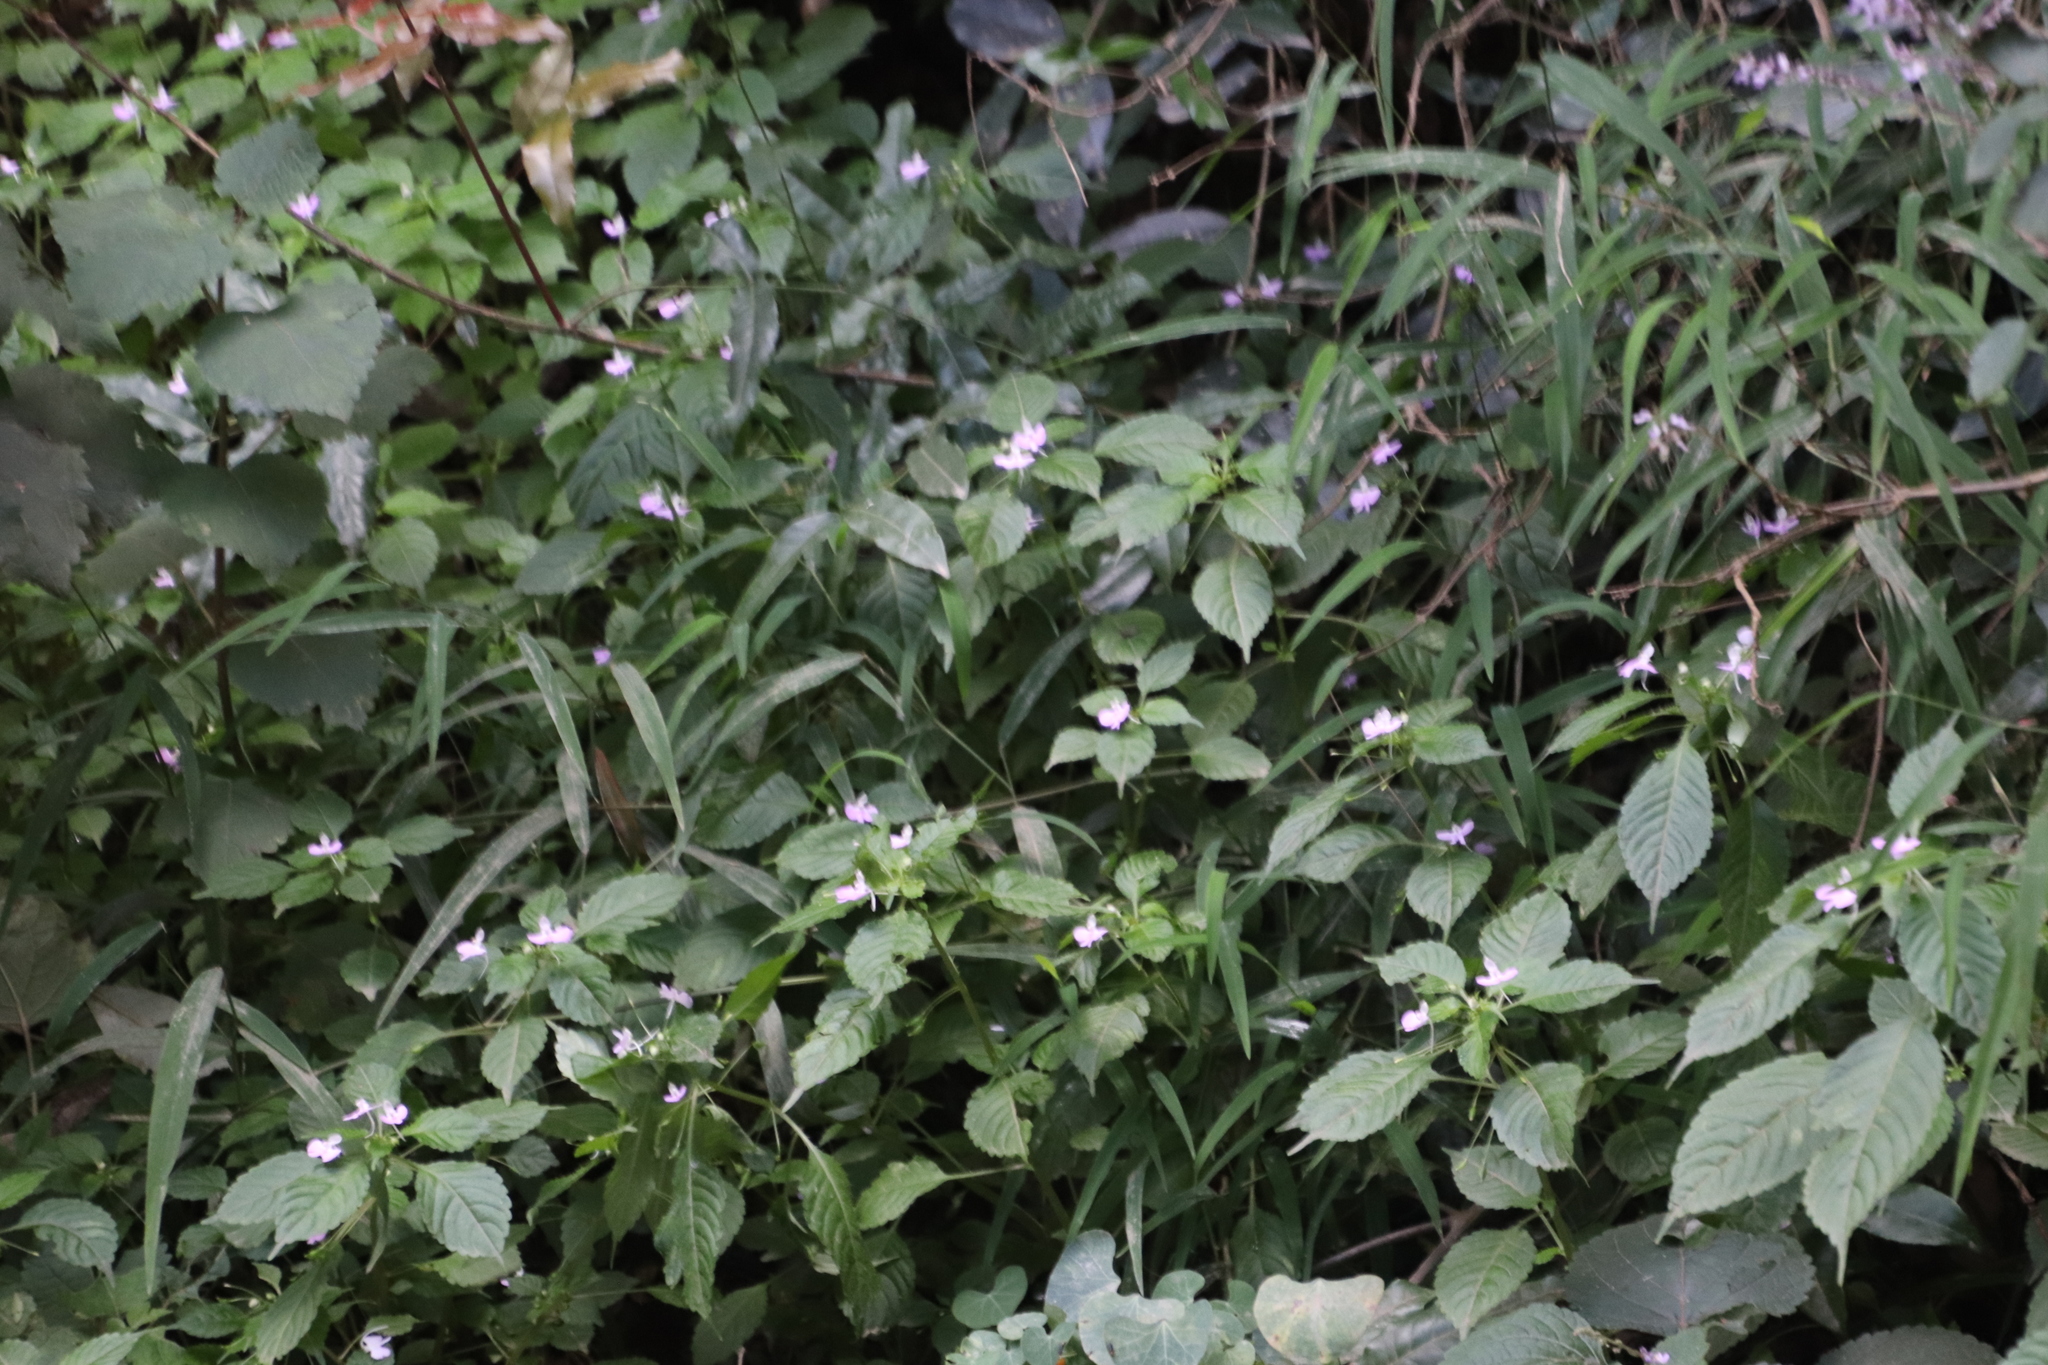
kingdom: Plantae
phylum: Tracheophyta
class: Magnoliopsida
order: Ericales
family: Balsaminaceae
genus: Impatiens
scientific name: Impatiens hochstetteri
